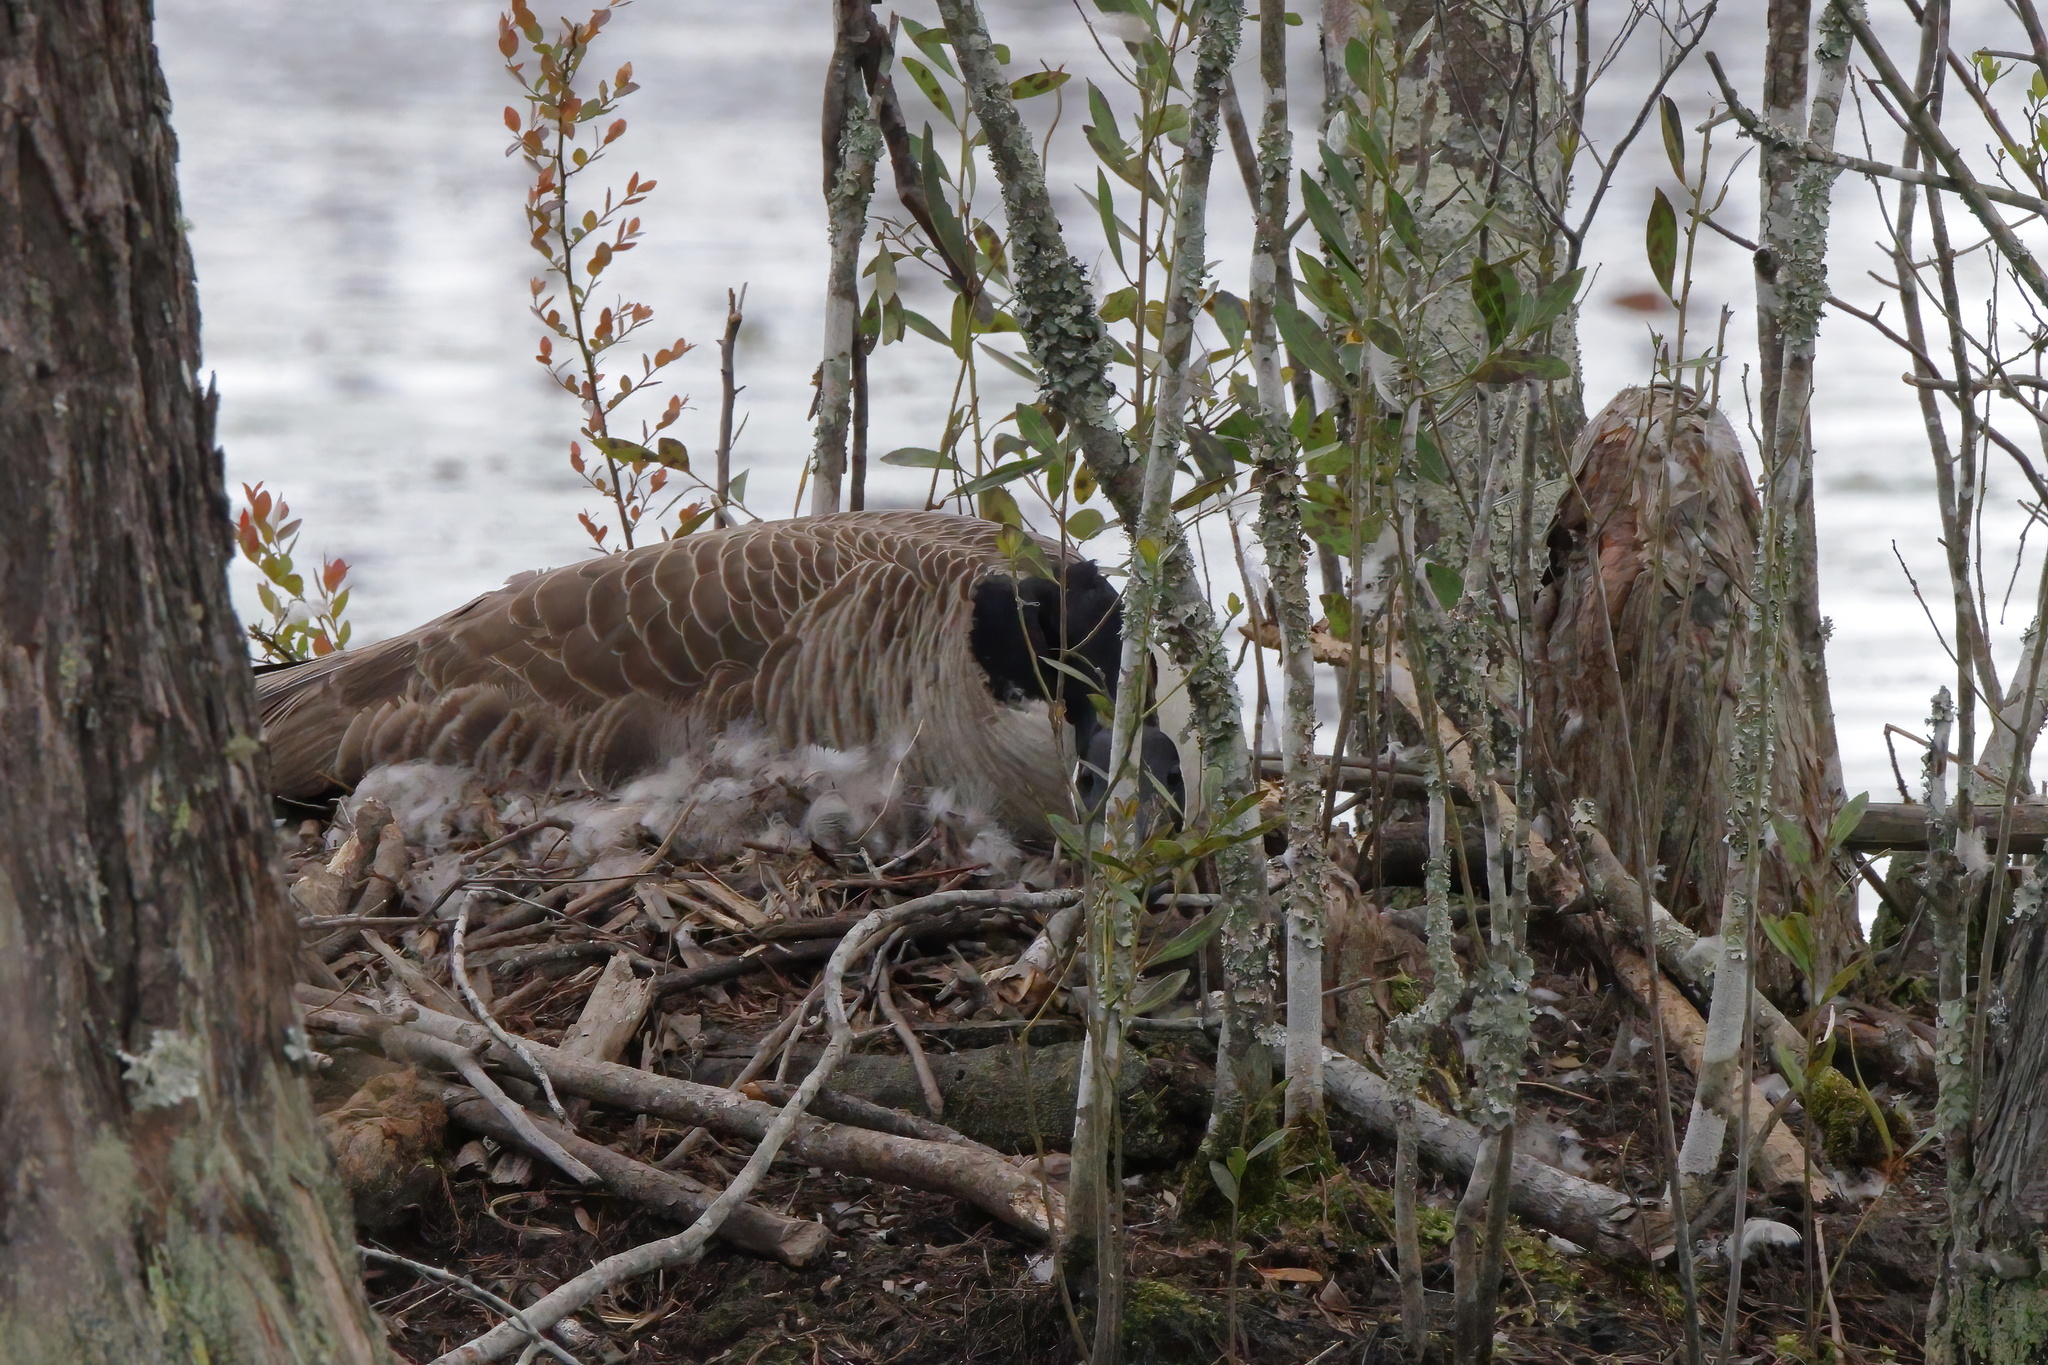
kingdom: Animalia
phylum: Chordata
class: Aves
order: Anseriformes
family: Anatidae
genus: Branta
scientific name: Branta canadensis
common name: Canada goose
